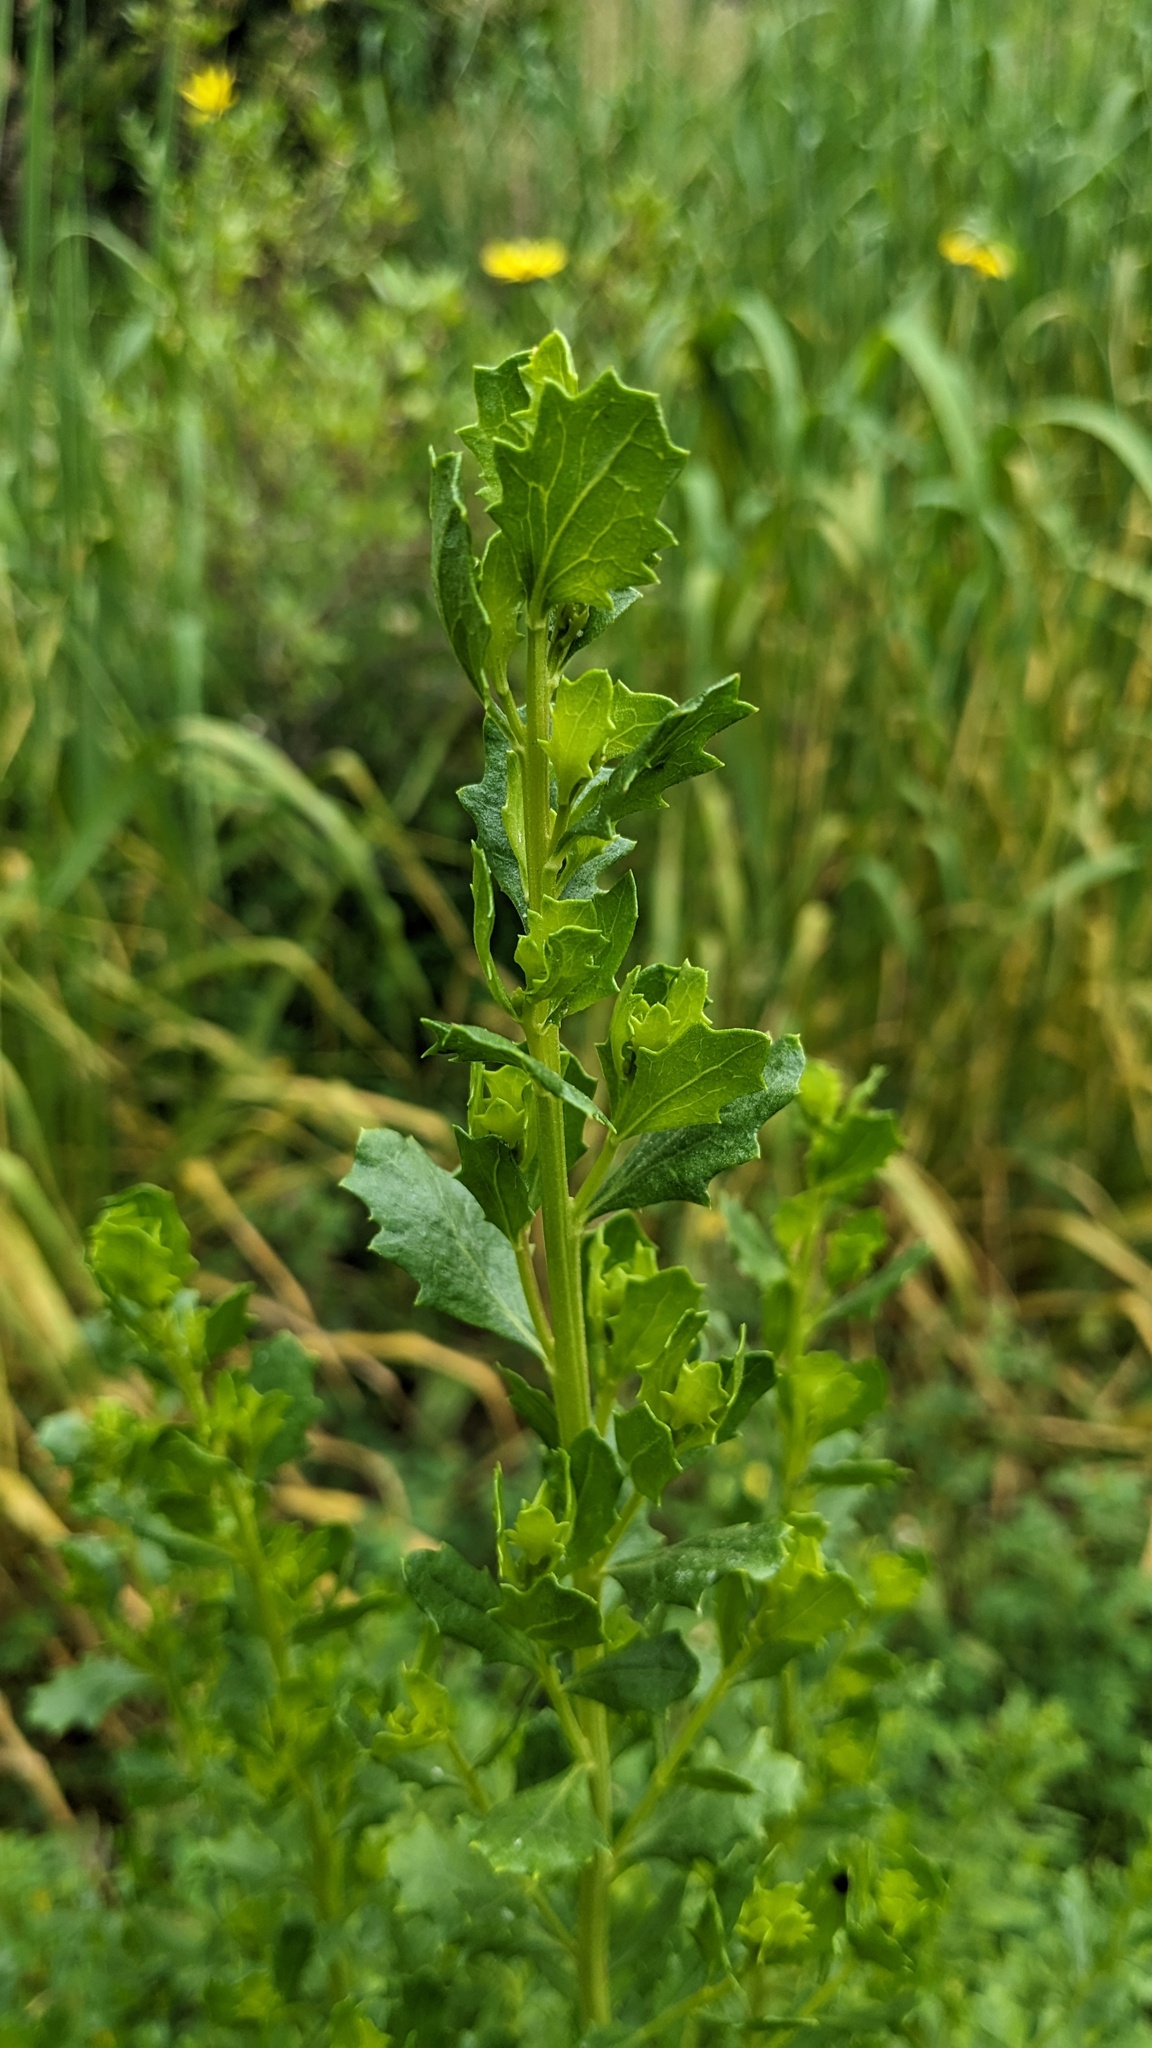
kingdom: Plantae
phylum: Tracheophyta
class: Magnoliopsida
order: Asterales
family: Asteraceae
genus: Baccharis
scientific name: Baccharis pilularis
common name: Coyotebrush
